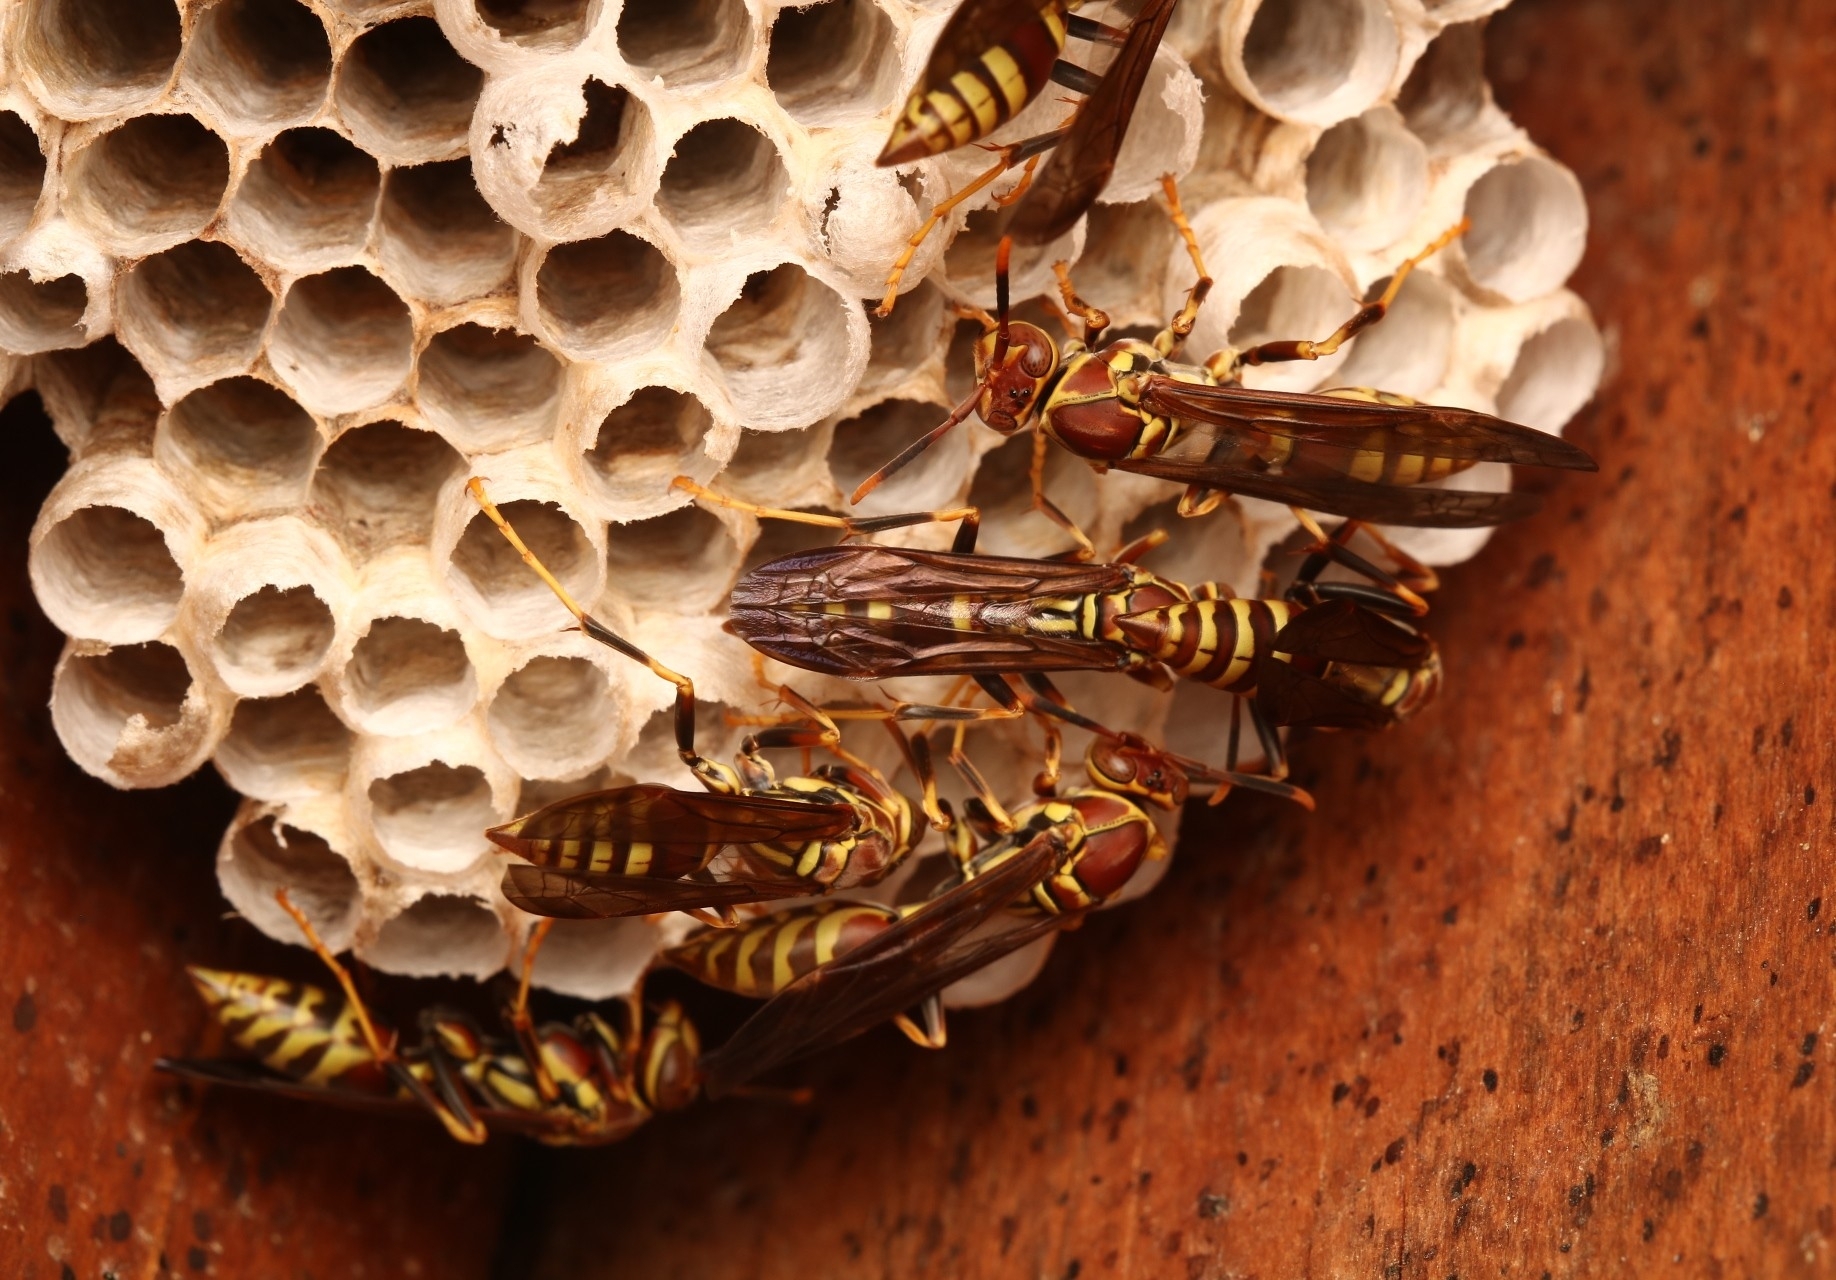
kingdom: Animalia
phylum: Arthropoda
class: Insecta
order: Hymenoptera
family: Eumenidae
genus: Polistes
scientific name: Polistes exclamans
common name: Paper wasp
